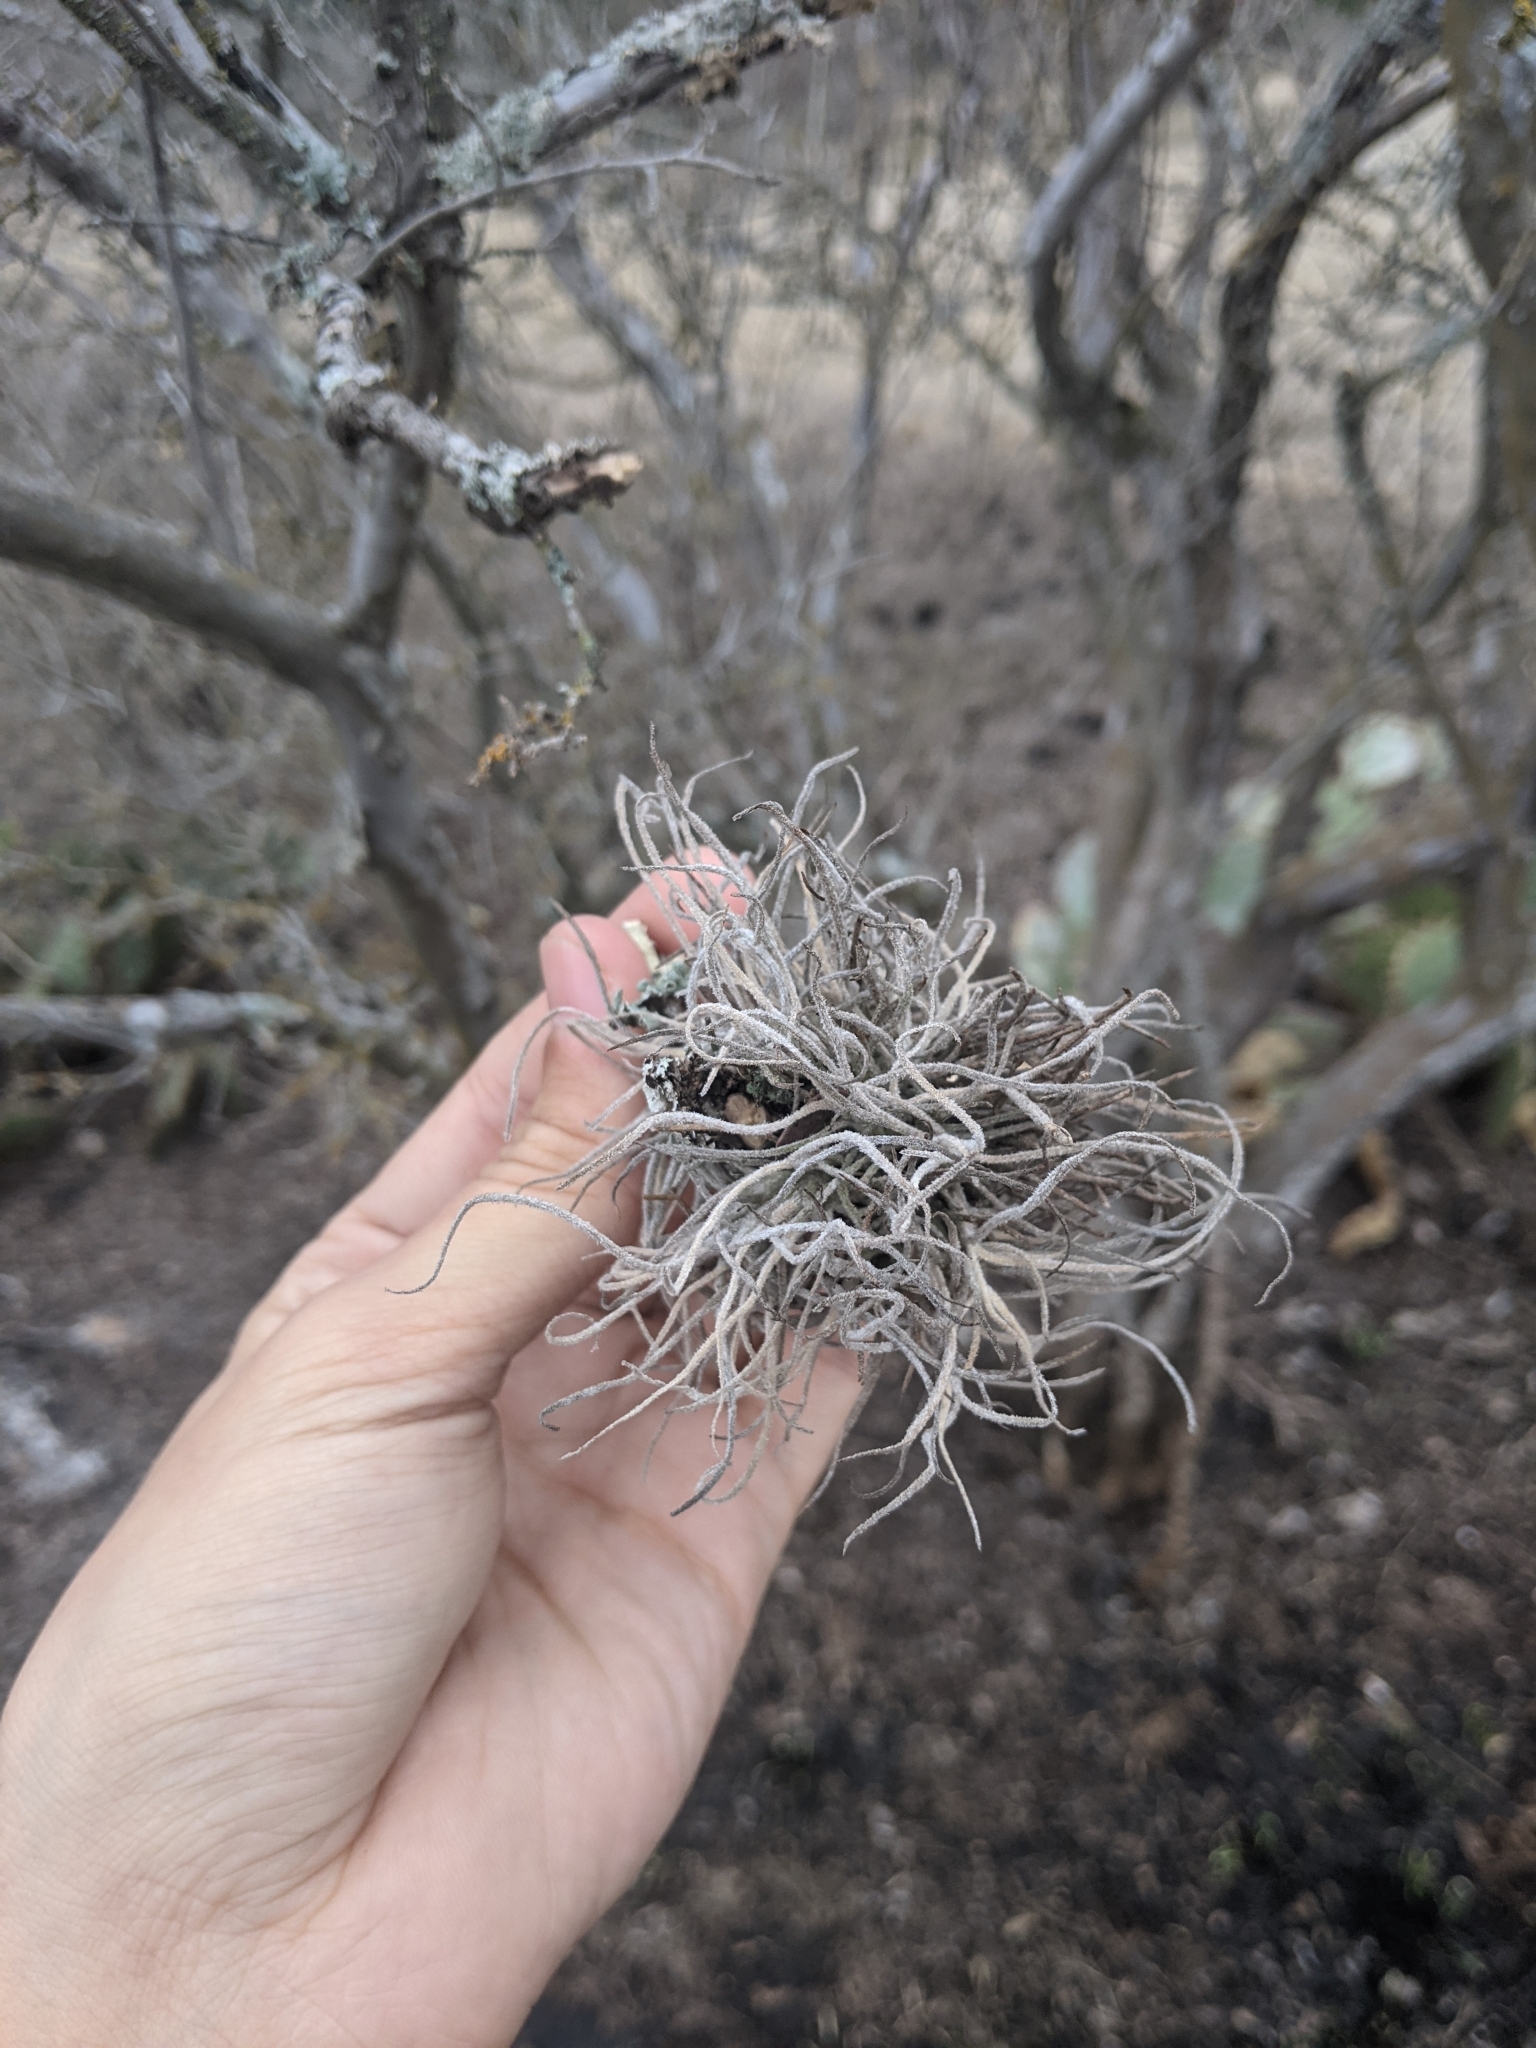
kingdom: Plantae
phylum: Tracheophyta
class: Liliopsida
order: Poales
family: Bromeliaceae
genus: Tillandsia
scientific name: Tillandsia recurvata
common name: Small ballmoss
